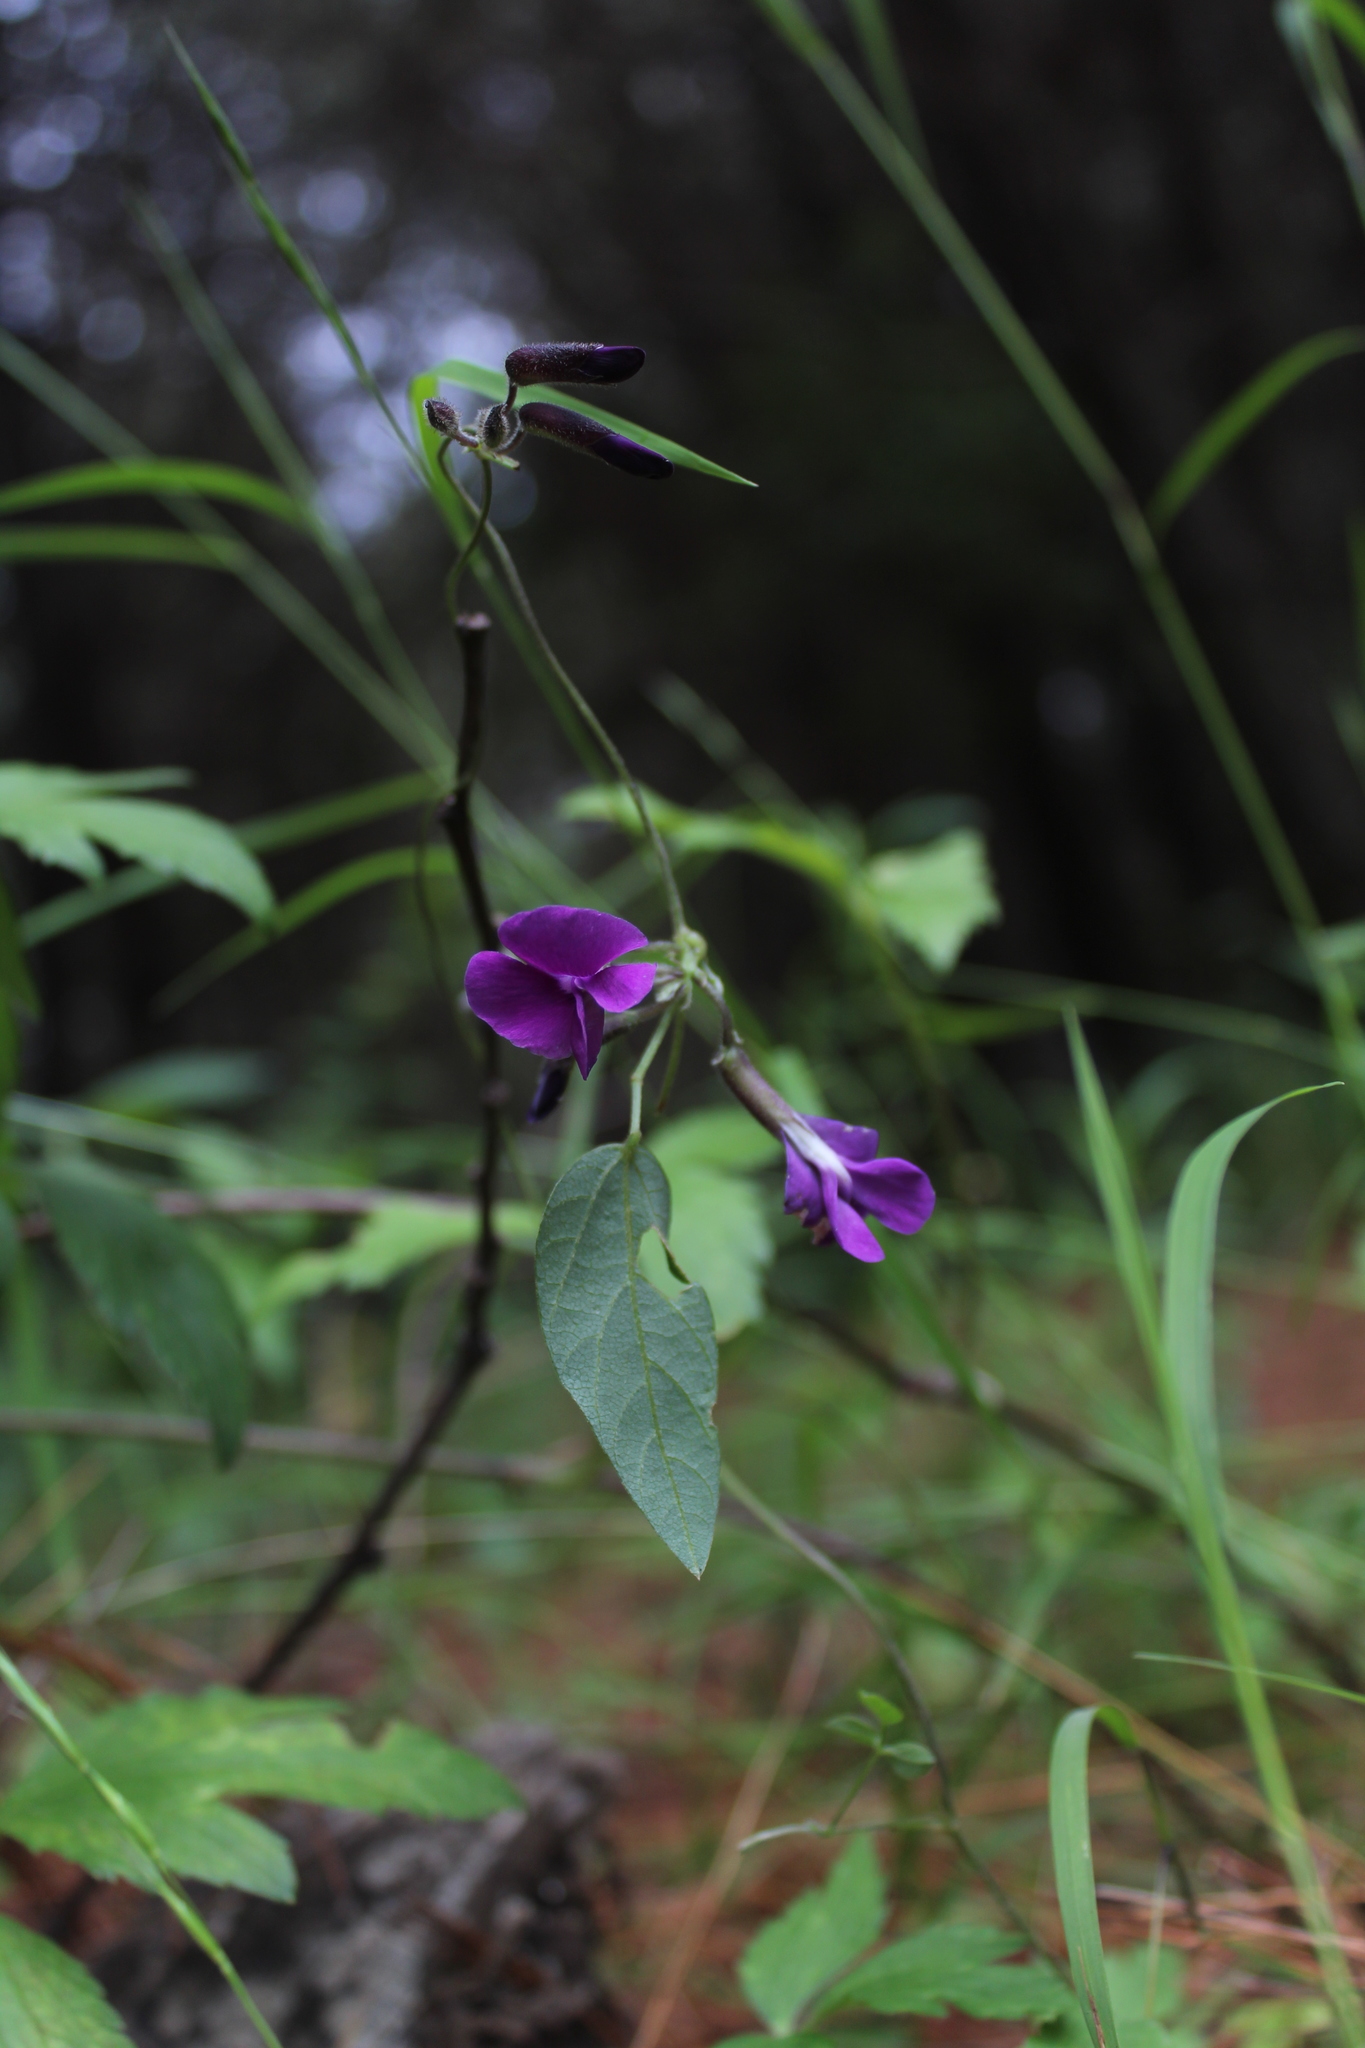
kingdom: Plantae
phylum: Tracheophyta
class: Magnoliopsida
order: Fabales
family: Fabaceae
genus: Cologania
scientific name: Cologania obovata
